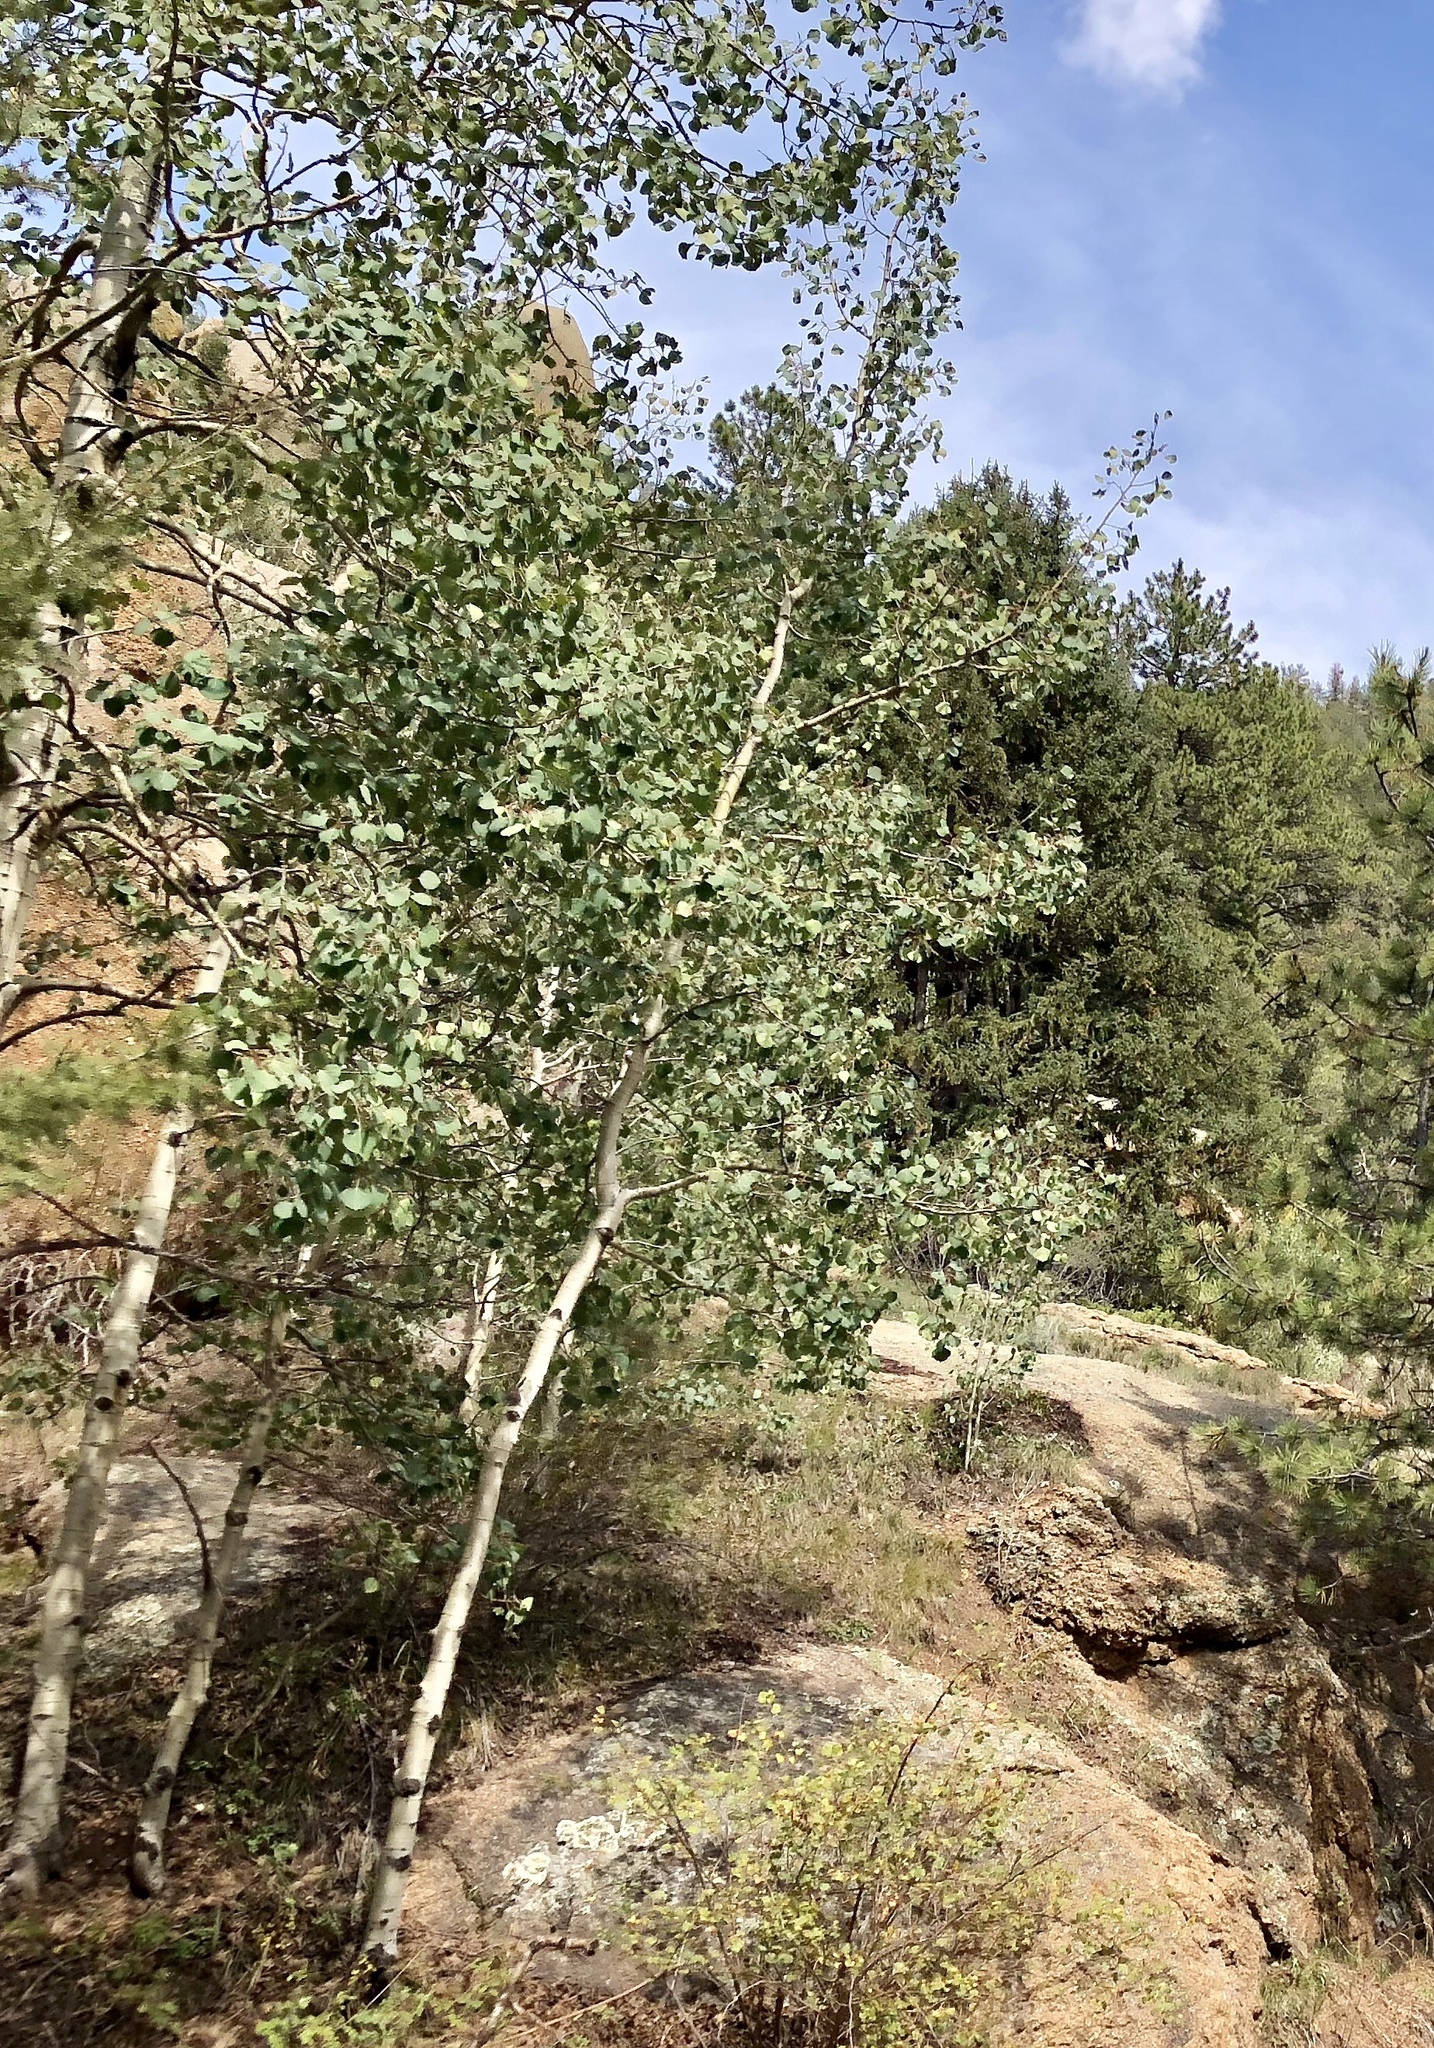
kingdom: Plantae
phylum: Tracheophyta
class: Magnoliopsida
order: Malpighiales
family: Salicaceae
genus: Populus
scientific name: Populus tremuloides
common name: Quaking aspen
